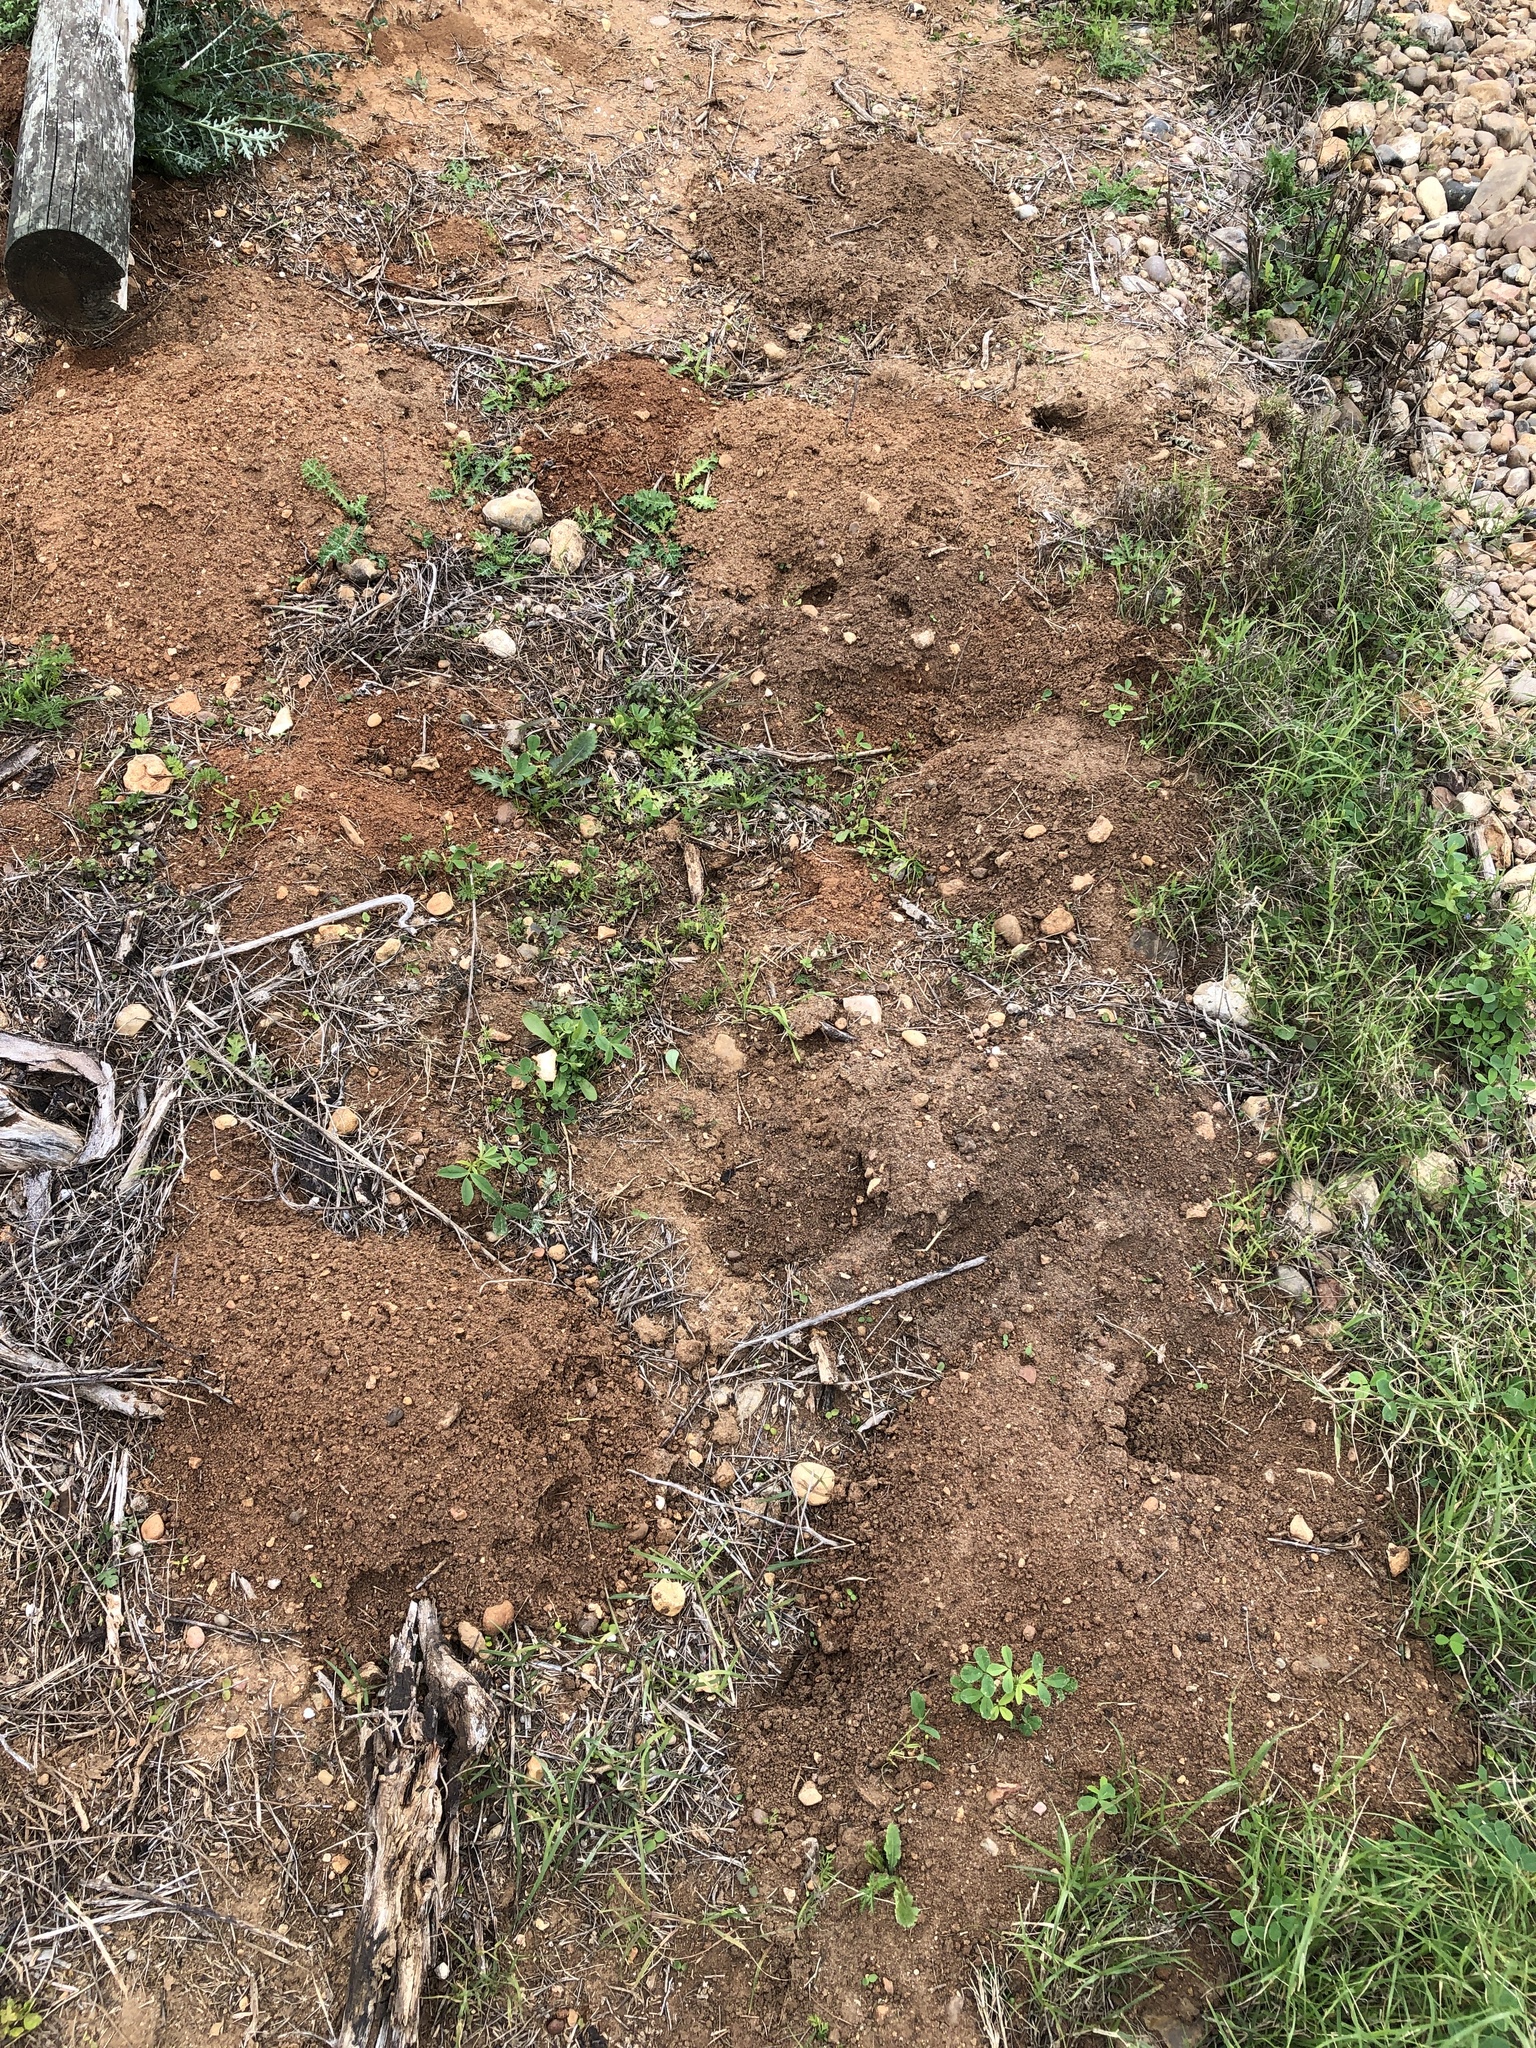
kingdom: Animalia
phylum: Chordata
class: Mammalia
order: Rodentia
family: Geomyidae
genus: Geomys
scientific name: Geomys attwateri
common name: Attwater's pocket gopher
